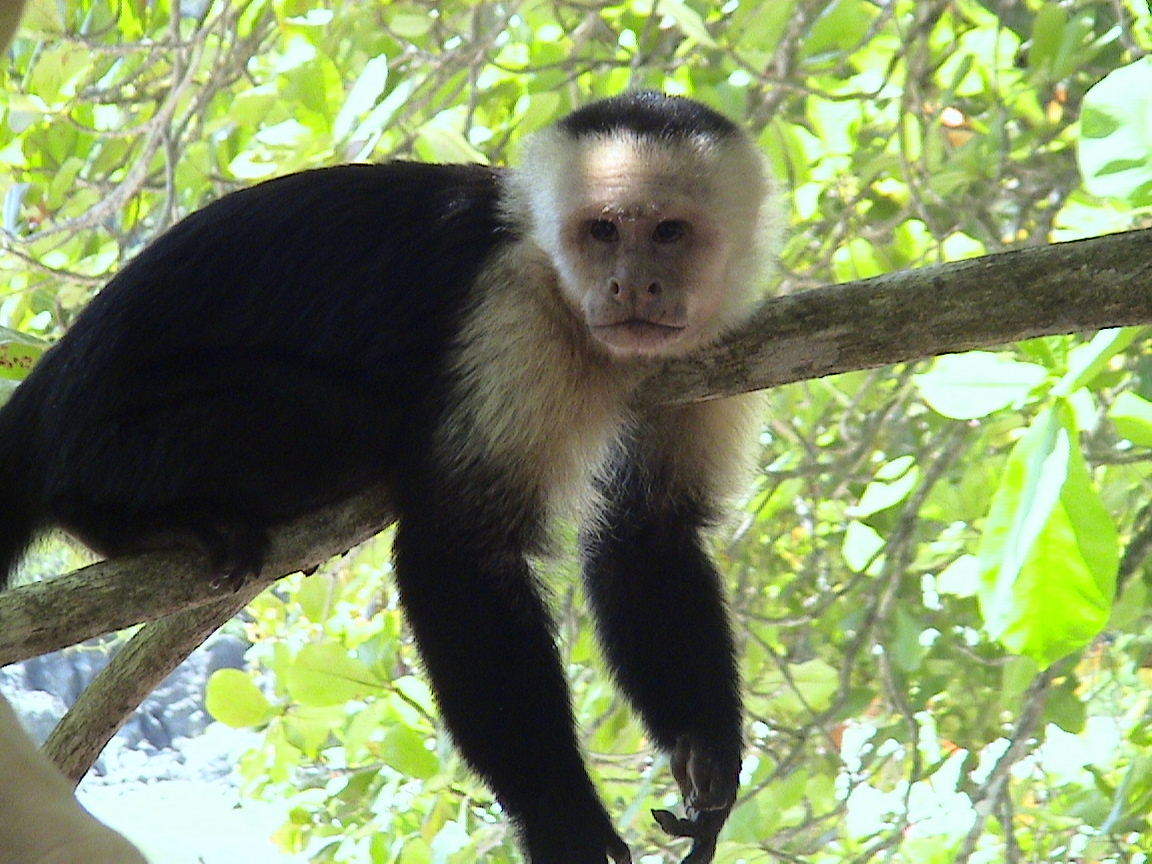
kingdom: Animalia
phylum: Chordata
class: Mammalia
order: Primates
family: Cebidae
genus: Cebus
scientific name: Cebus imitator
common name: Panamanian white-faced capuchin
